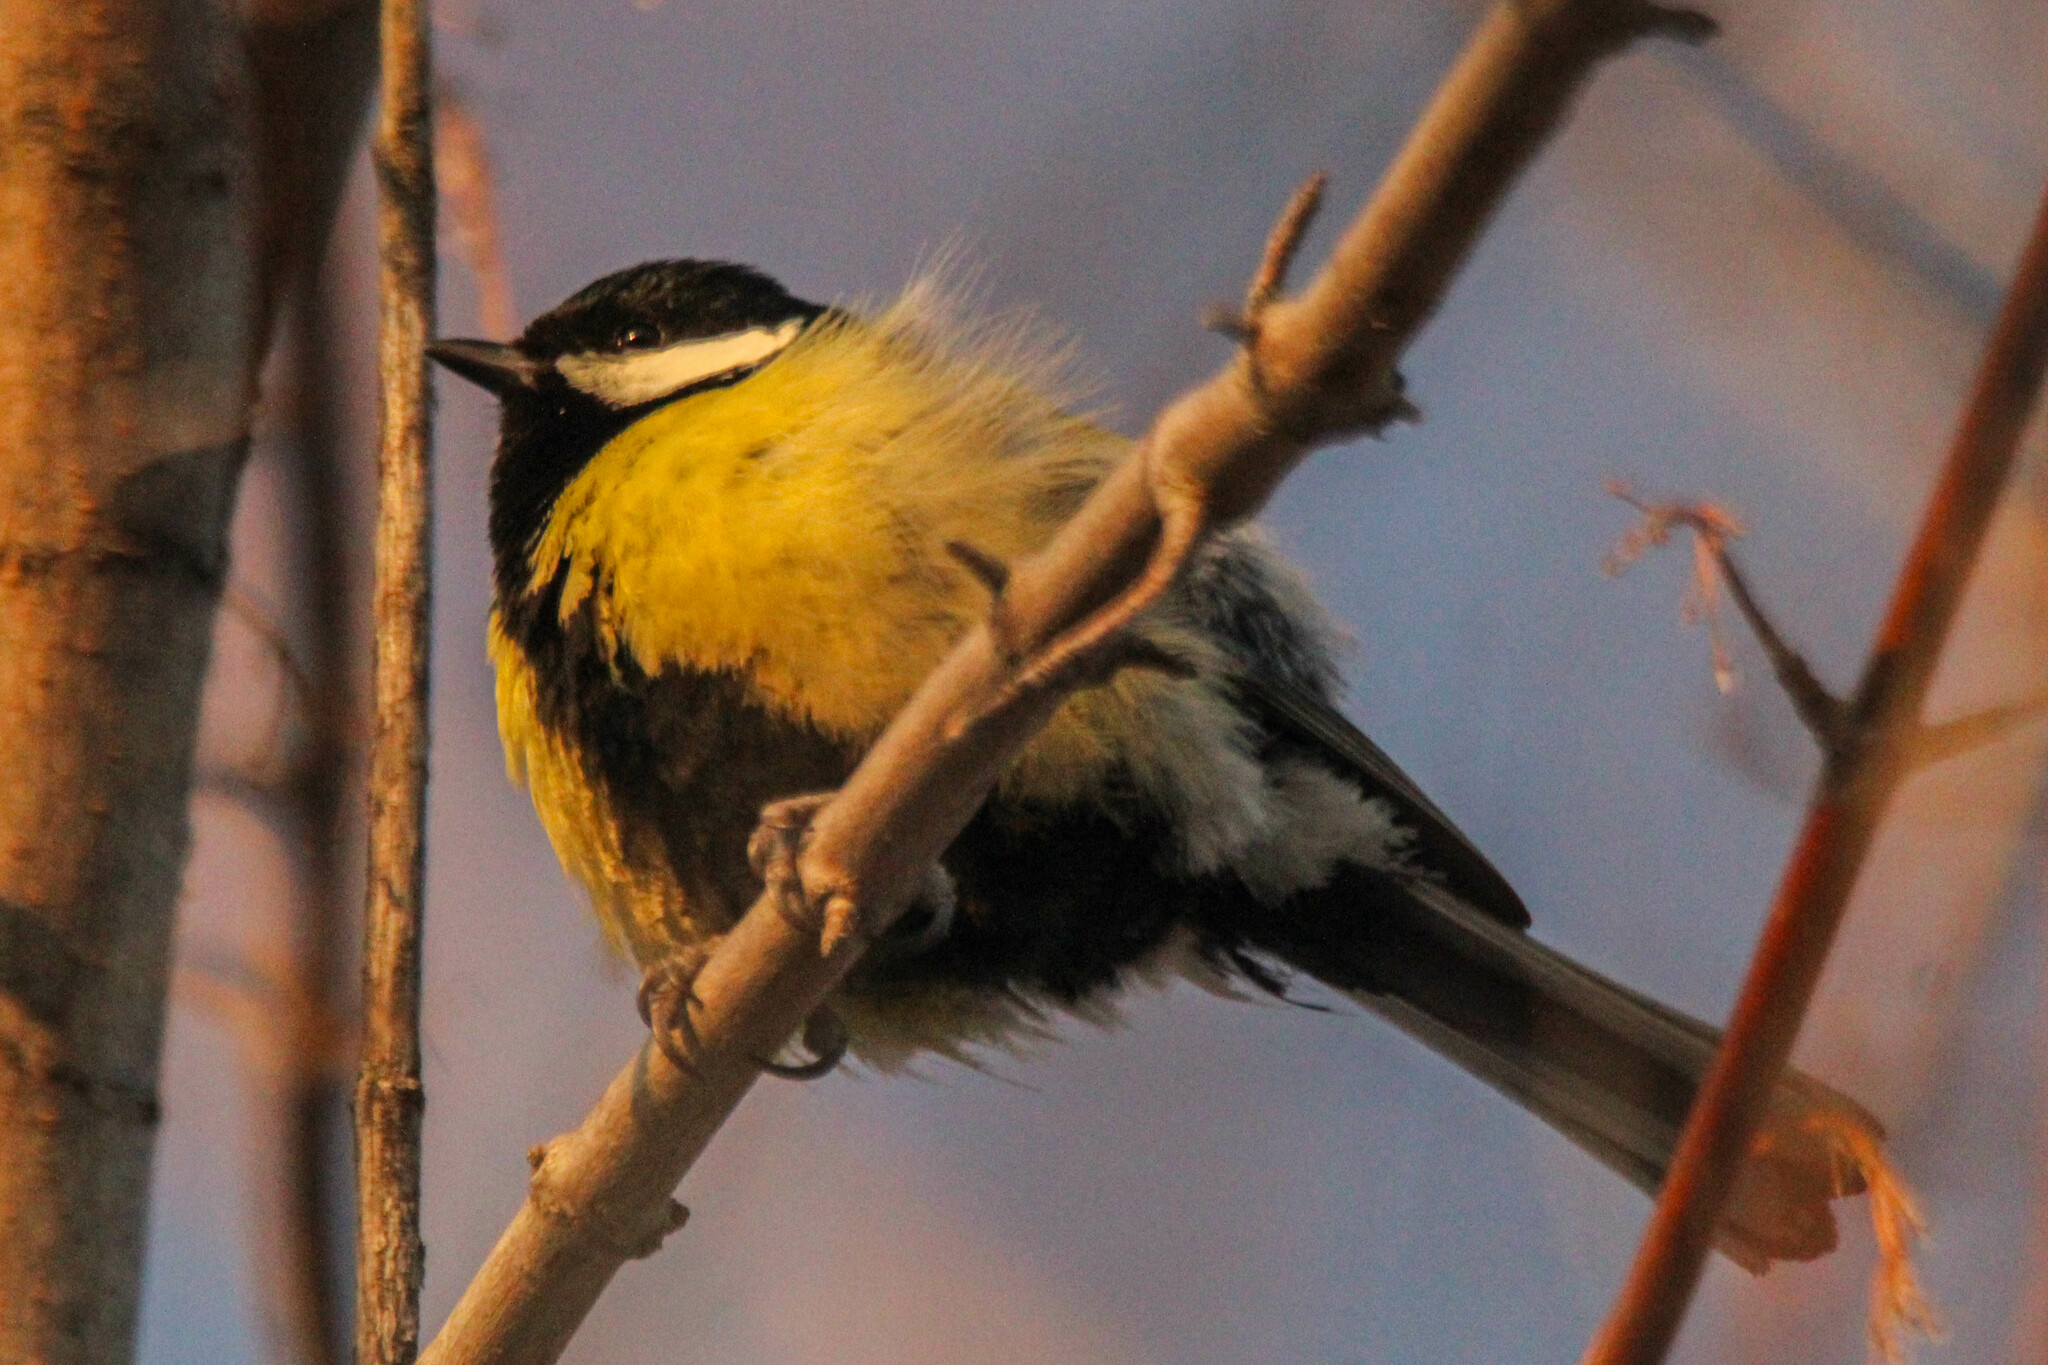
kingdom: Animalia
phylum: Chordata
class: Aves
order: Passeriformes
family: Paridae
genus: Parus
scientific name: Parus major
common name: Great tit
